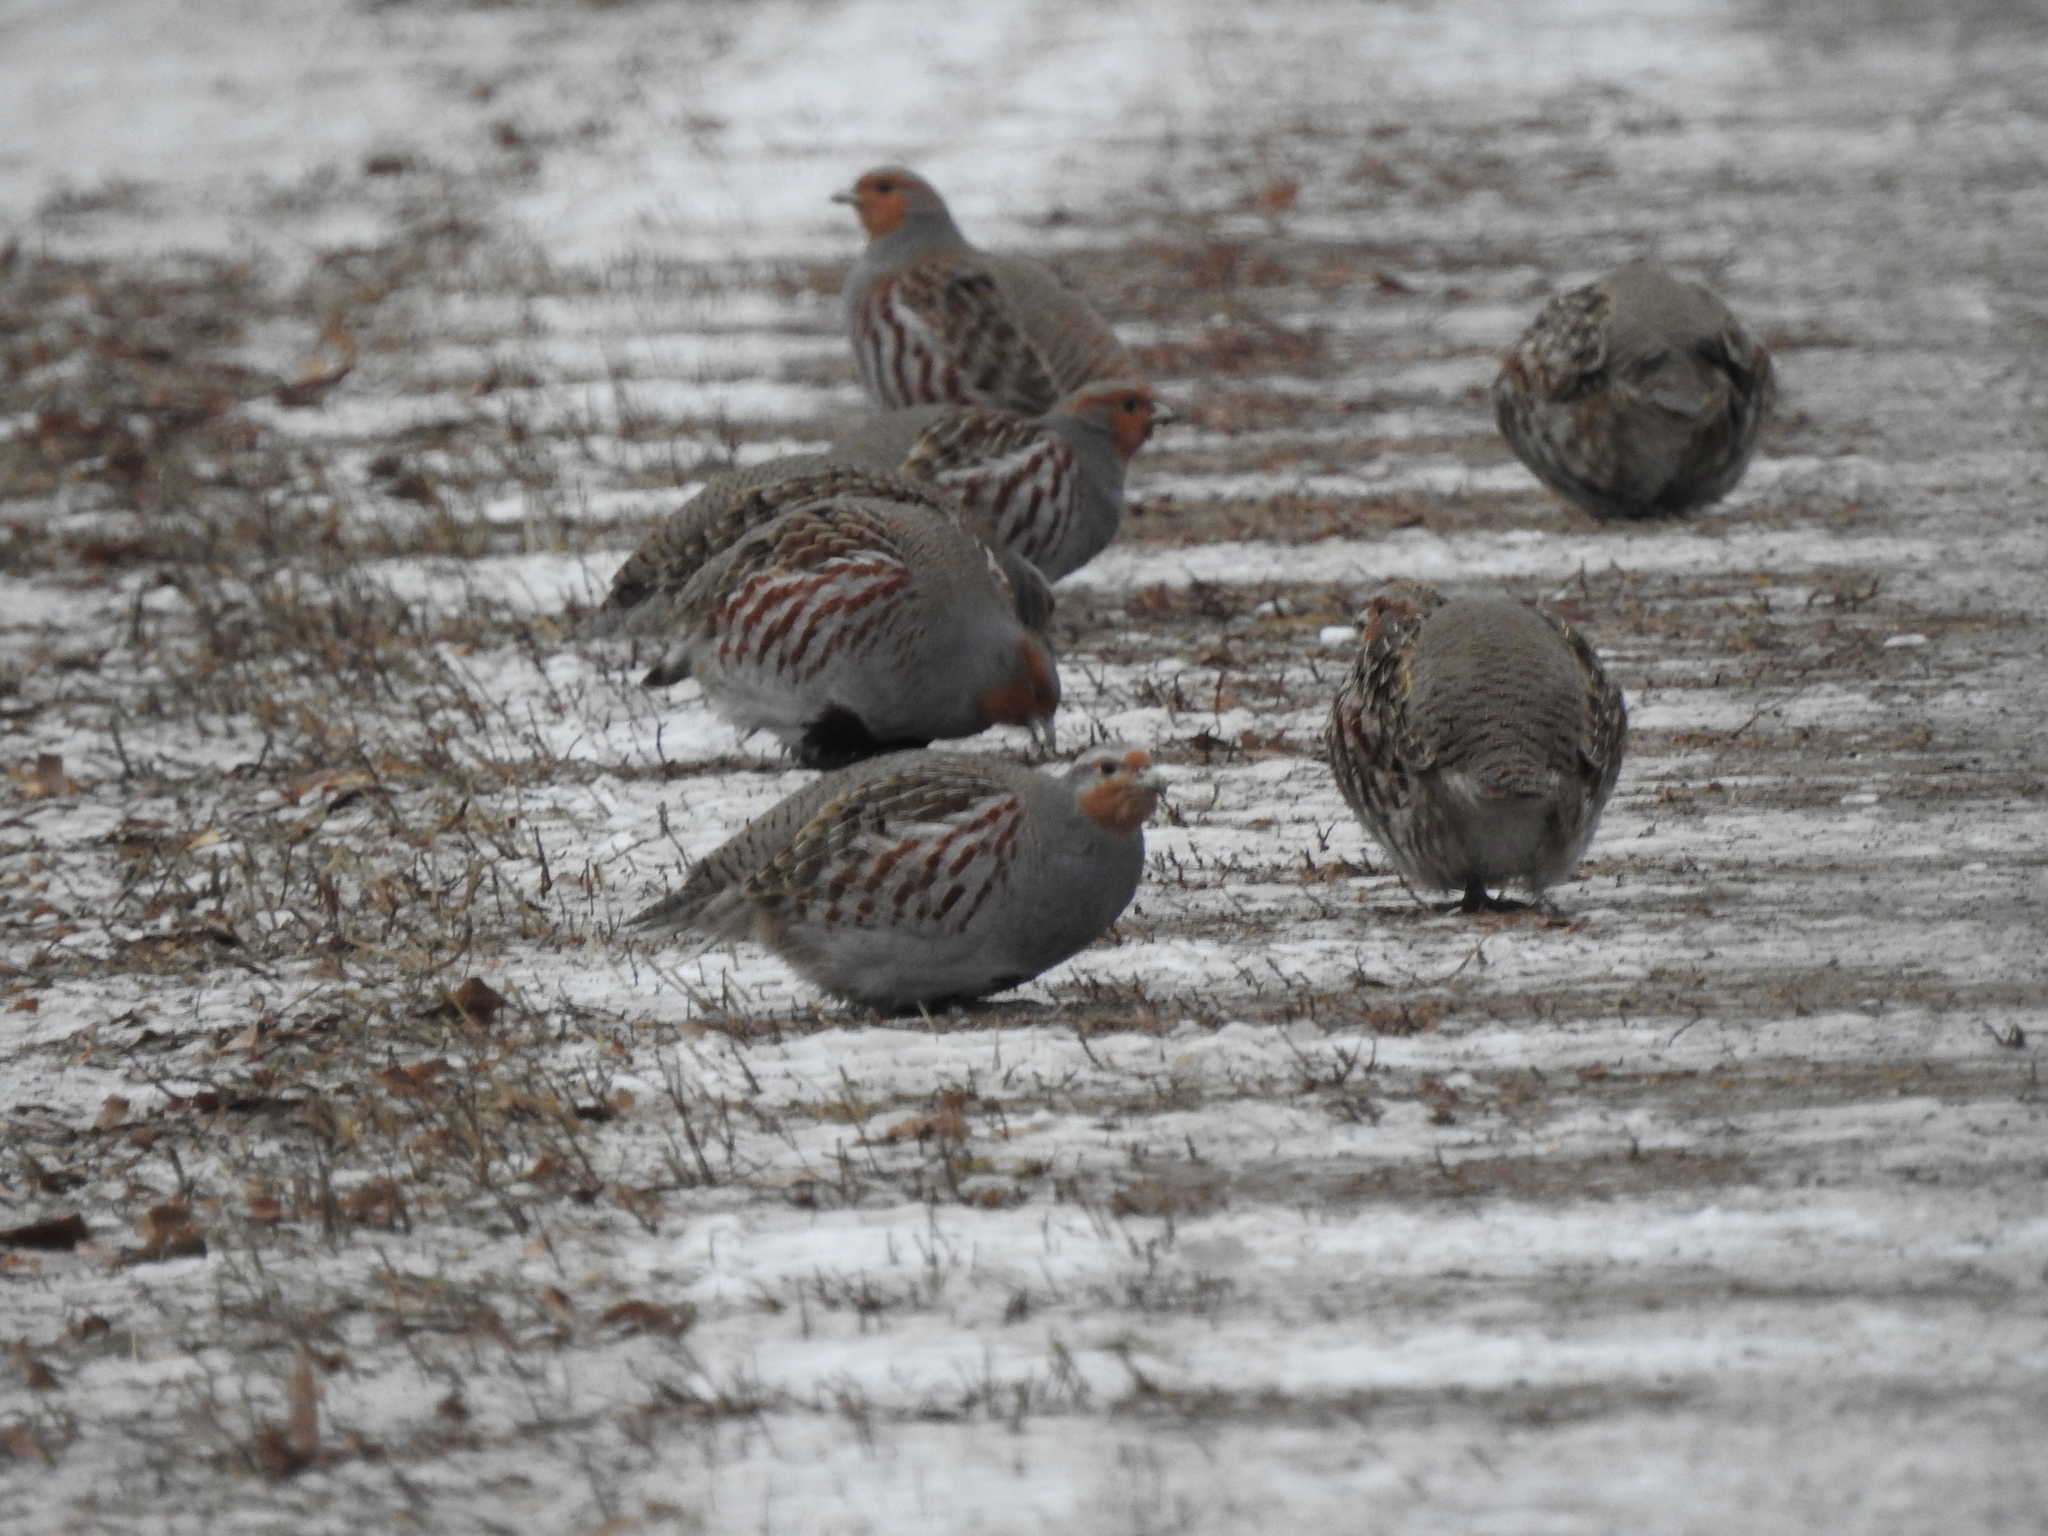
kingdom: Animalia
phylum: Chordata
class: Aves
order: Galliformes
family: Phasianidae
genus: Perdix
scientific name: Perdix perdix
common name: Grey partridge
